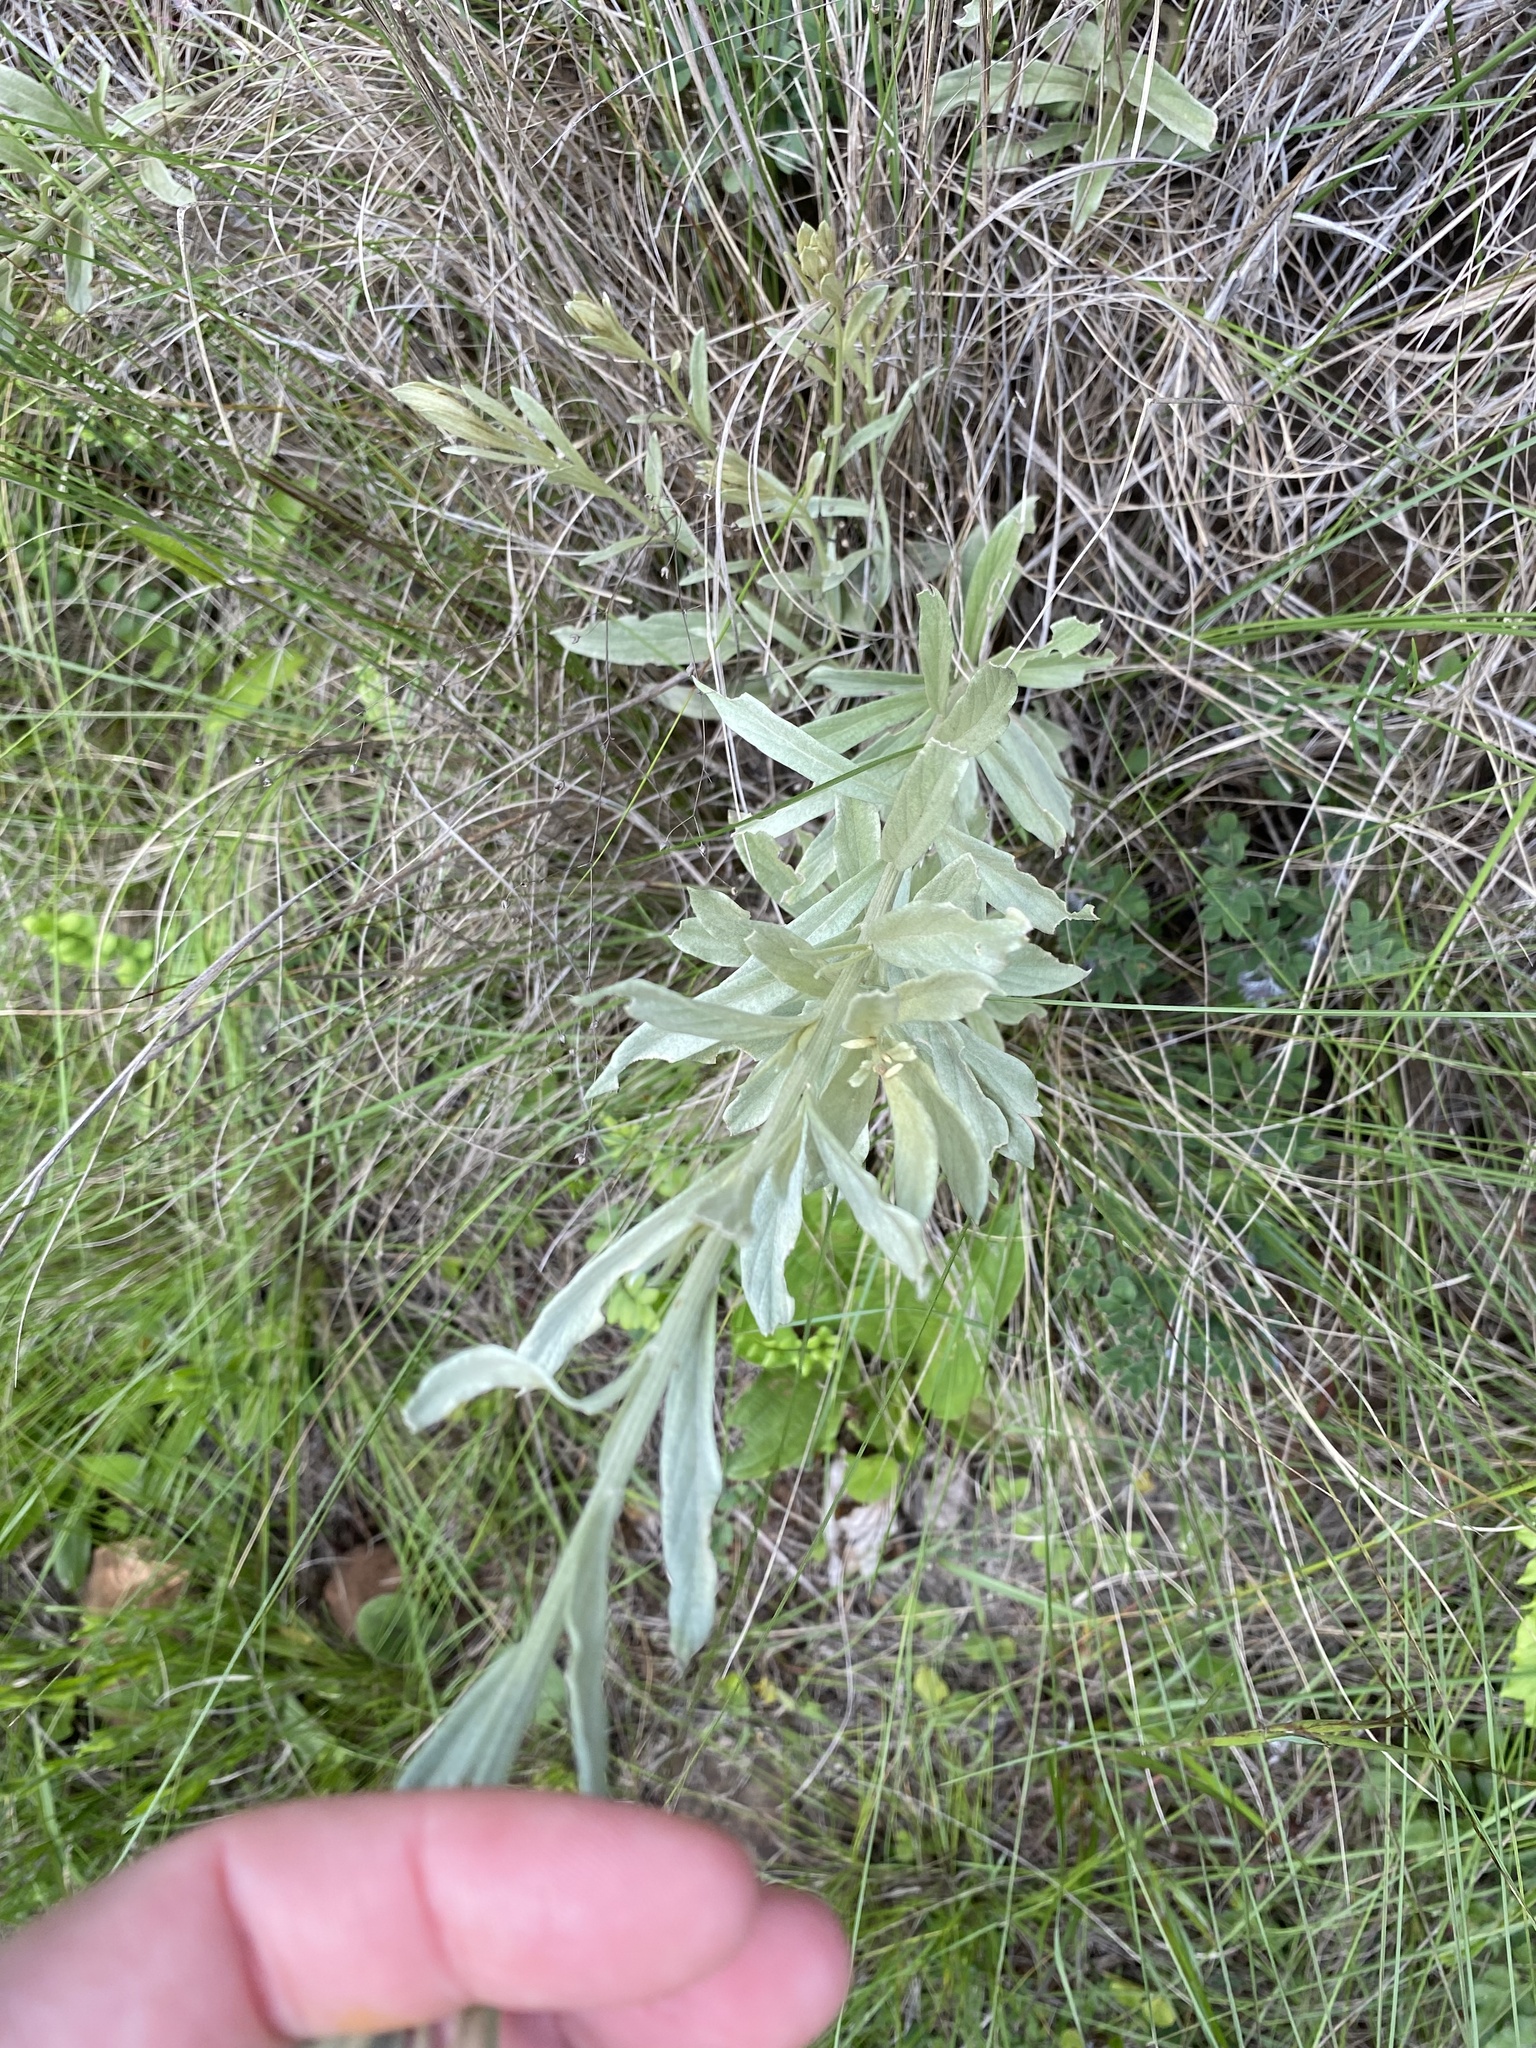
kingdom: Plantae
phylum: Tracheophyta
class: Magnoliopsida
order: Asterales
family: Asteraceae
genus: Hilliardiella
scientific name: Hilliardiella aristata
